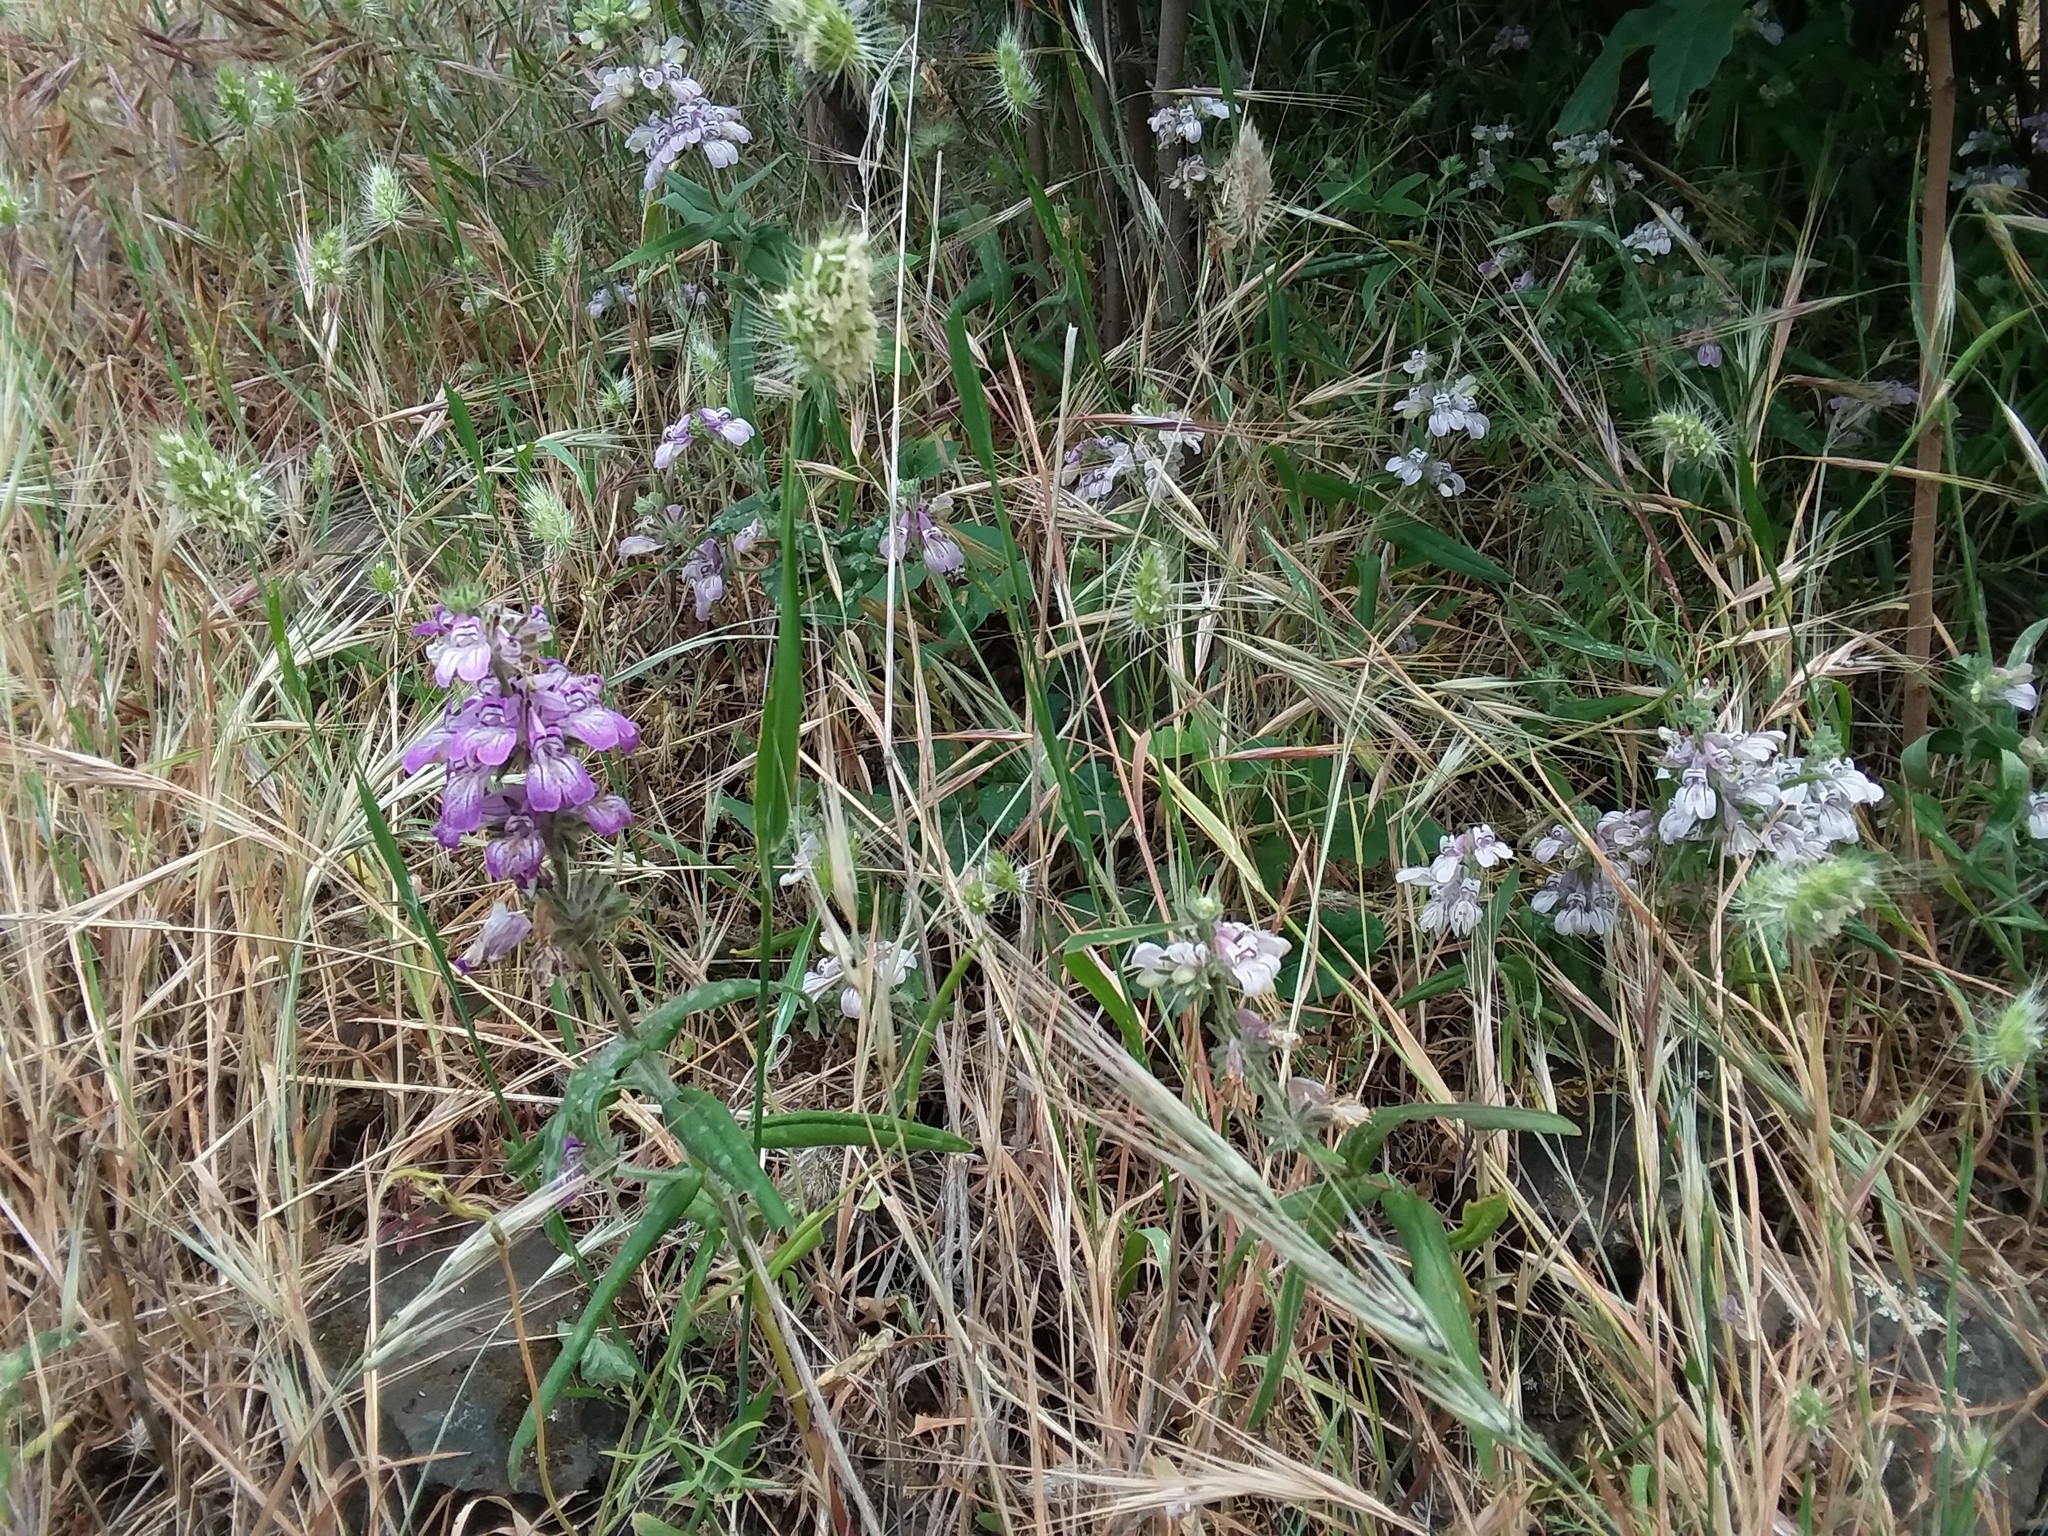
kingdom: Plantae
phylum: Tracheophyta
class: Magnoliopsida
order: Lamiales
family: Plantaginaceae
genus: Collinsia
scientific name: Collinsia tinctoria
